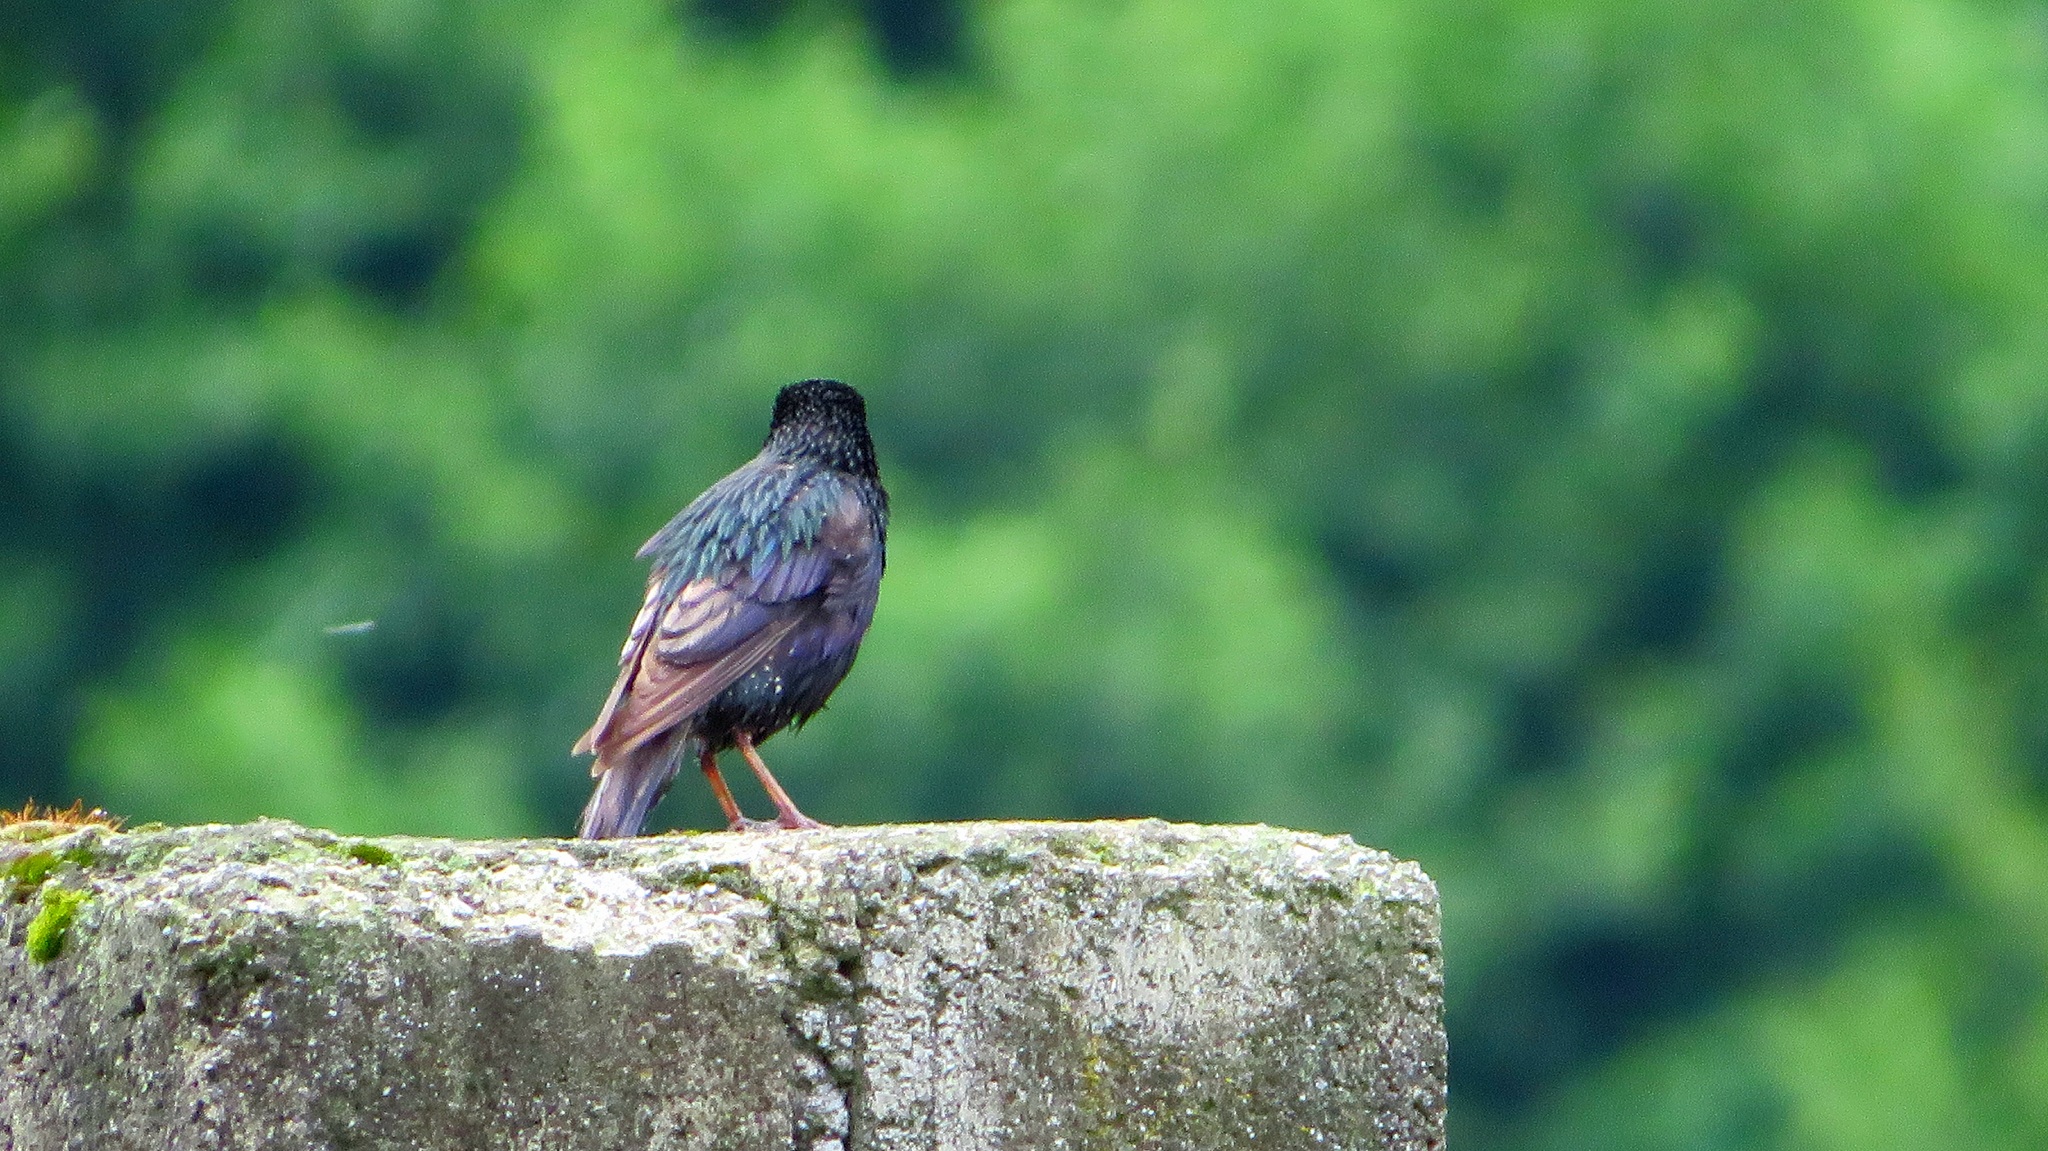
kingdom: Animalia
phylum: Chordata
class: Aves
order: Passeriformes
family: Sturnidae
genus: Sturnus
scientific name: Sturnus vulgaris
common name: Common starling
